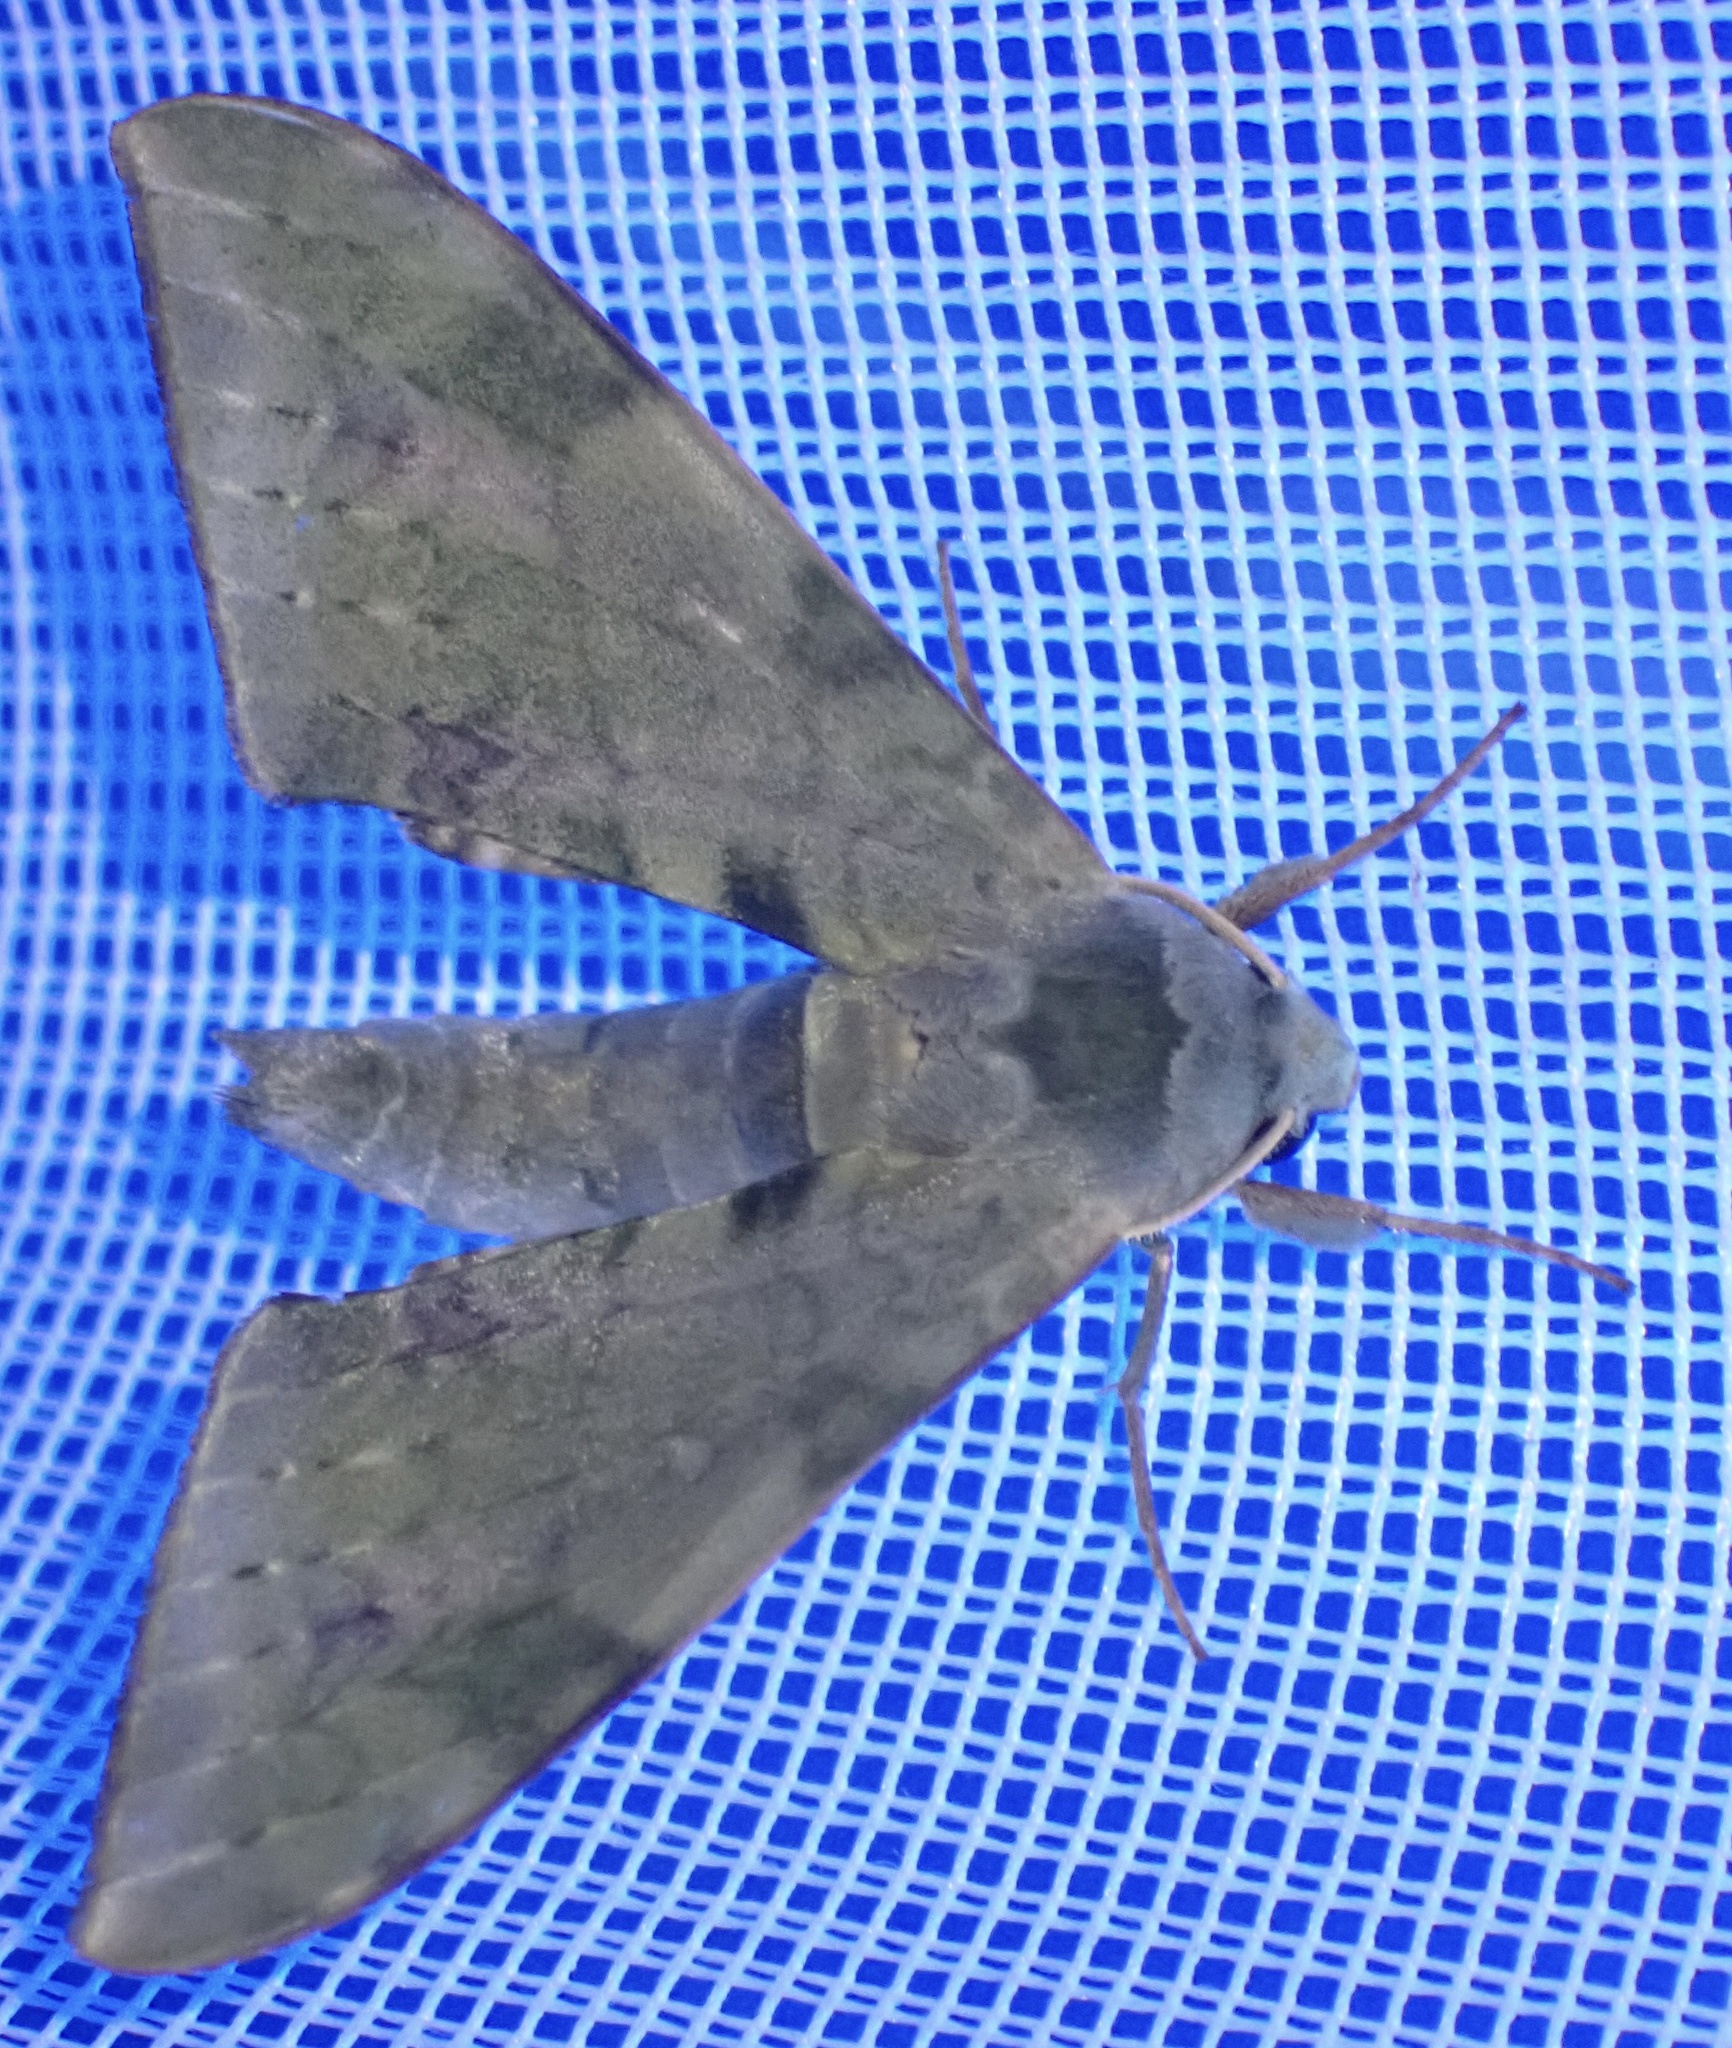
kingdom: Animalia
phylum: Arthropoda
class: Insecta
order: Lepidoptera
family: Sphingidae
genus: Chloroclanis
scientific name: Chloroclanis virescens
